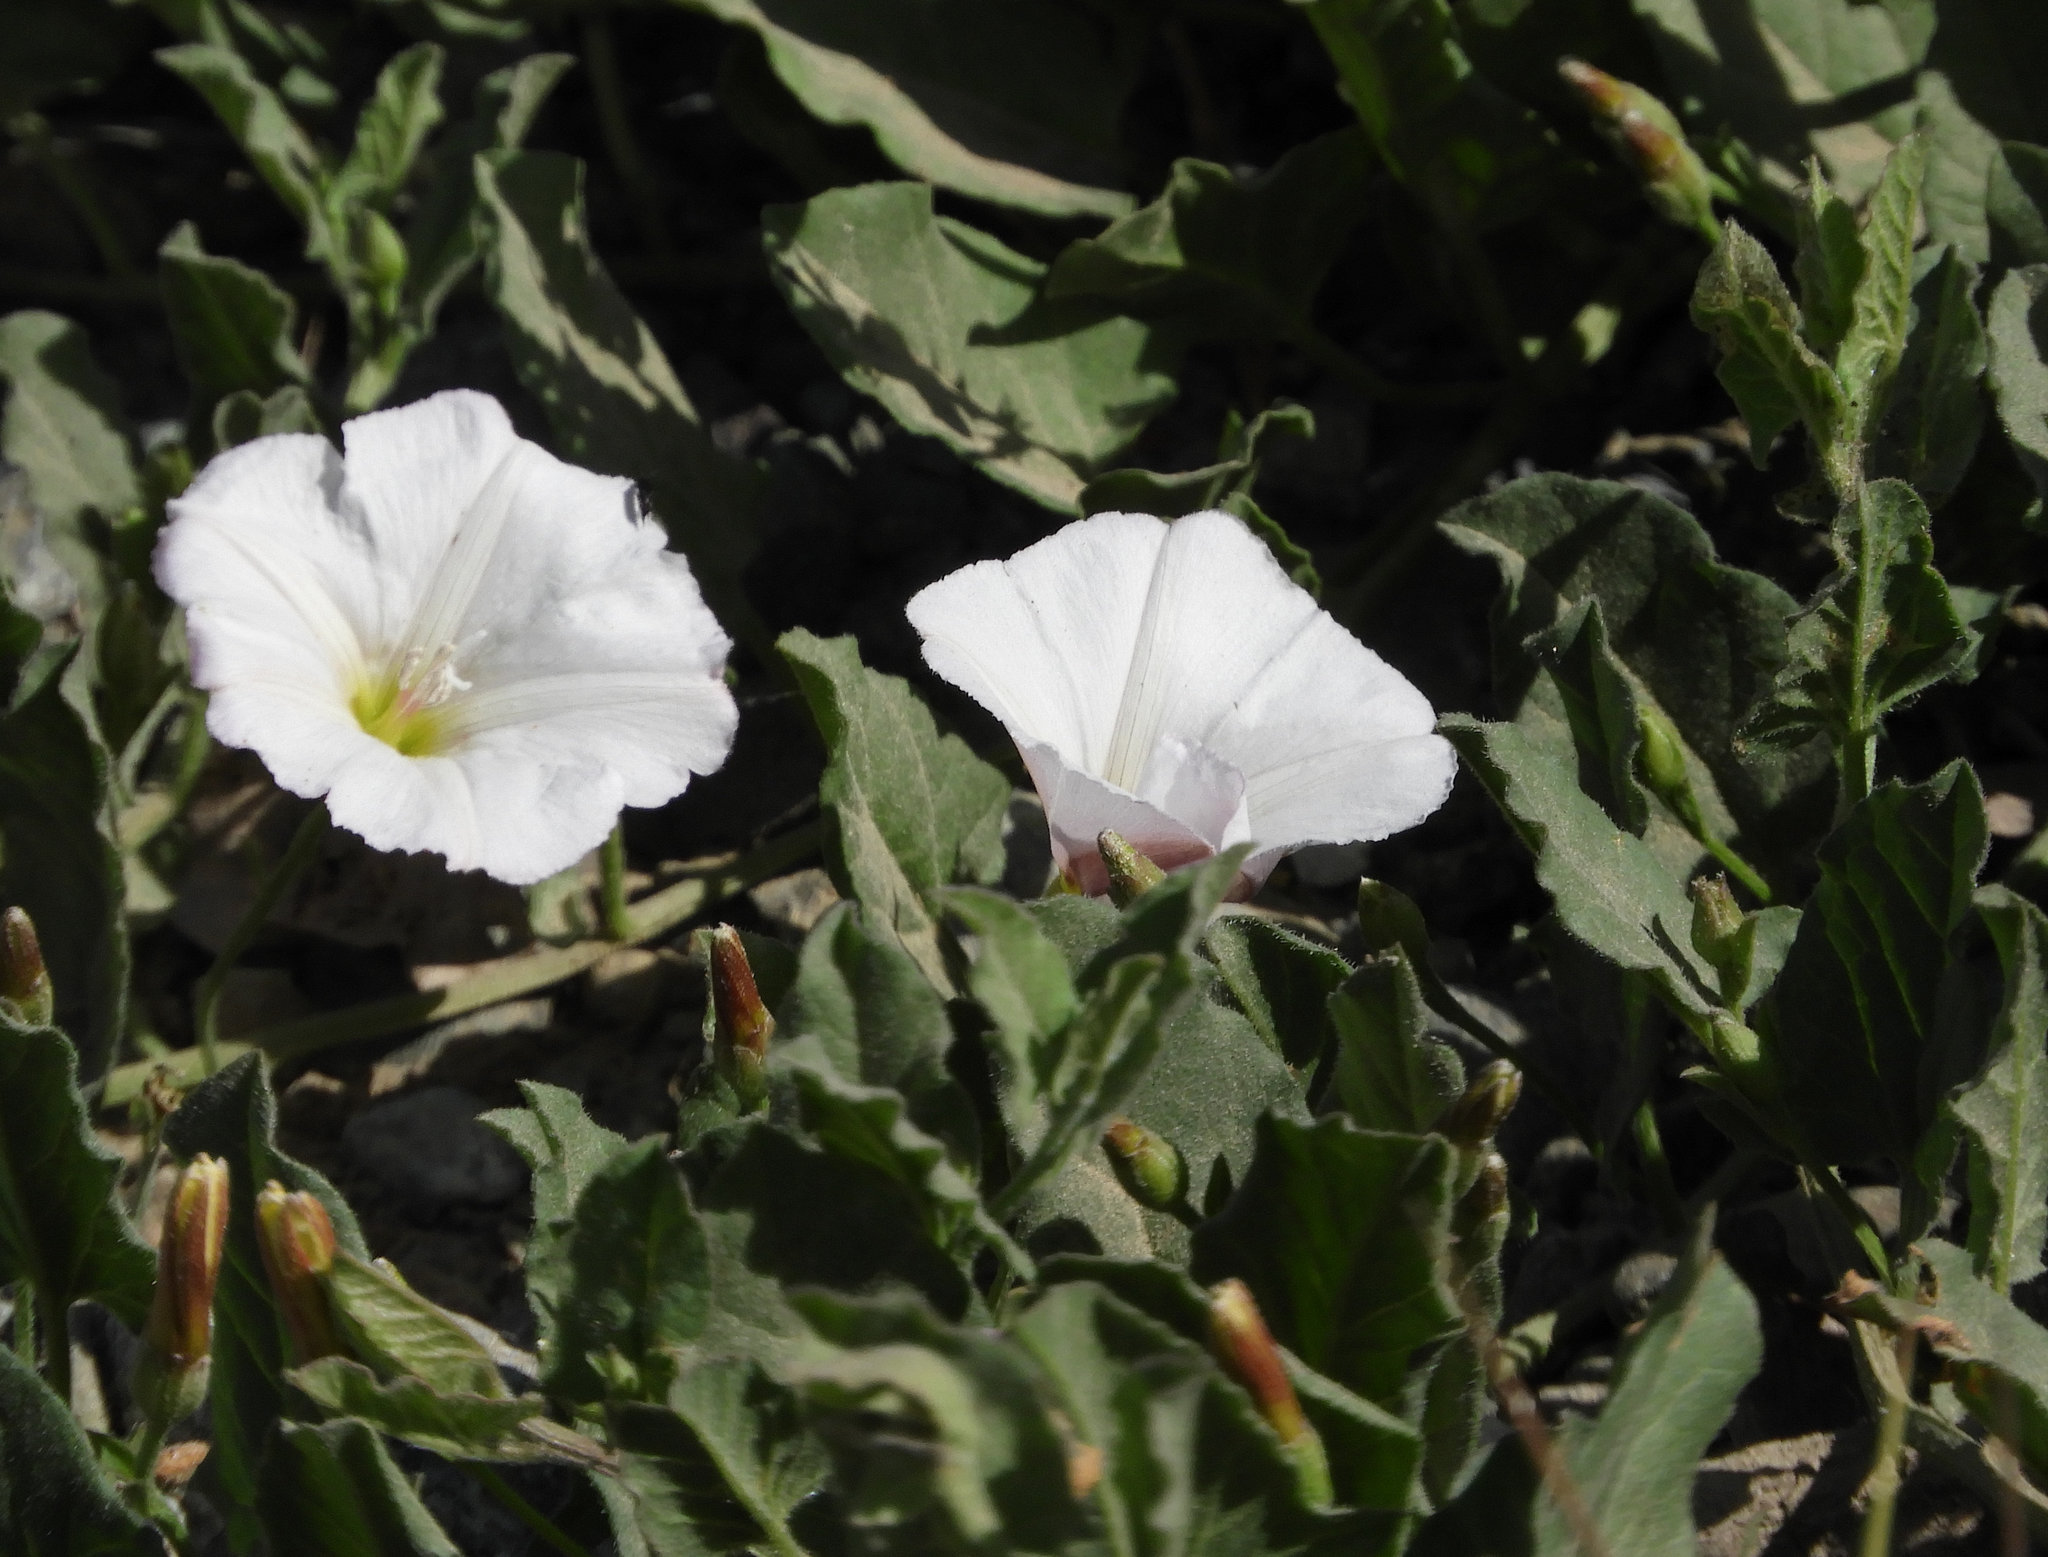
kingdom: Plantae
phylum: Tracheophyta
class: Magnoliopsida
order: Solanales
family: Convolvulaceae
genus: Convolvulus
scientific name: Convolvulus arvensis
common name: Field bindweed
